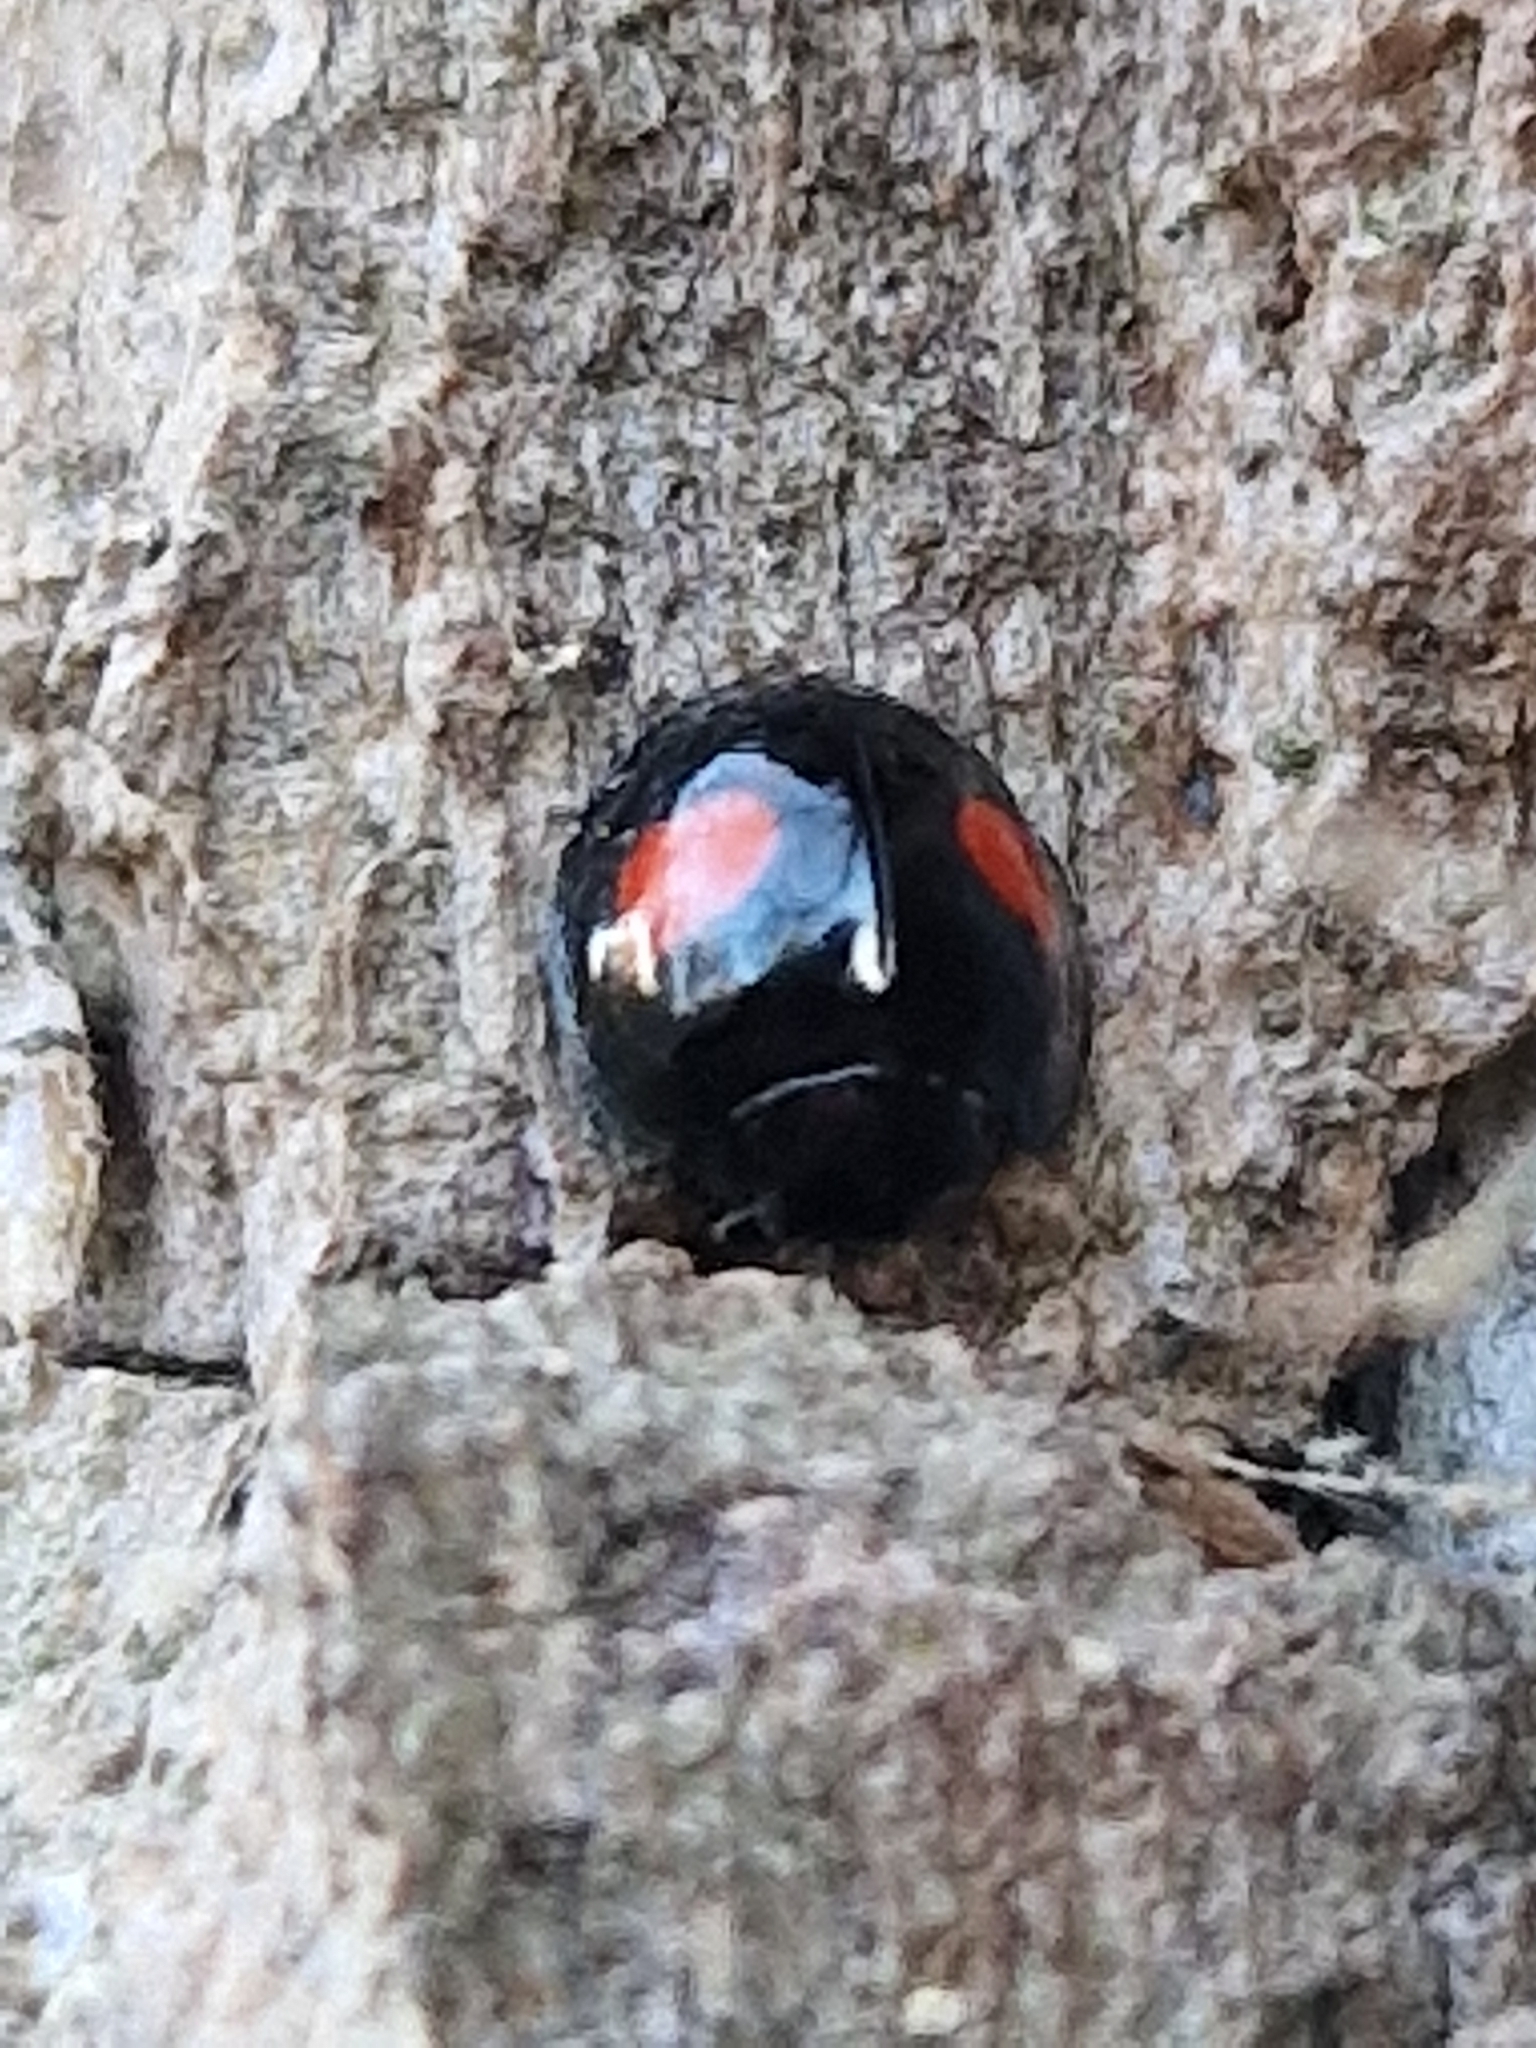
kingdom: Animalia
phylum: Arthropoda
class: Insecta
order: Coleoptera
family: Coccinellidae
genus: Chilocorus
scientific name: Chilocorus renipustulatus
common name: Kidney-spot ladybird
